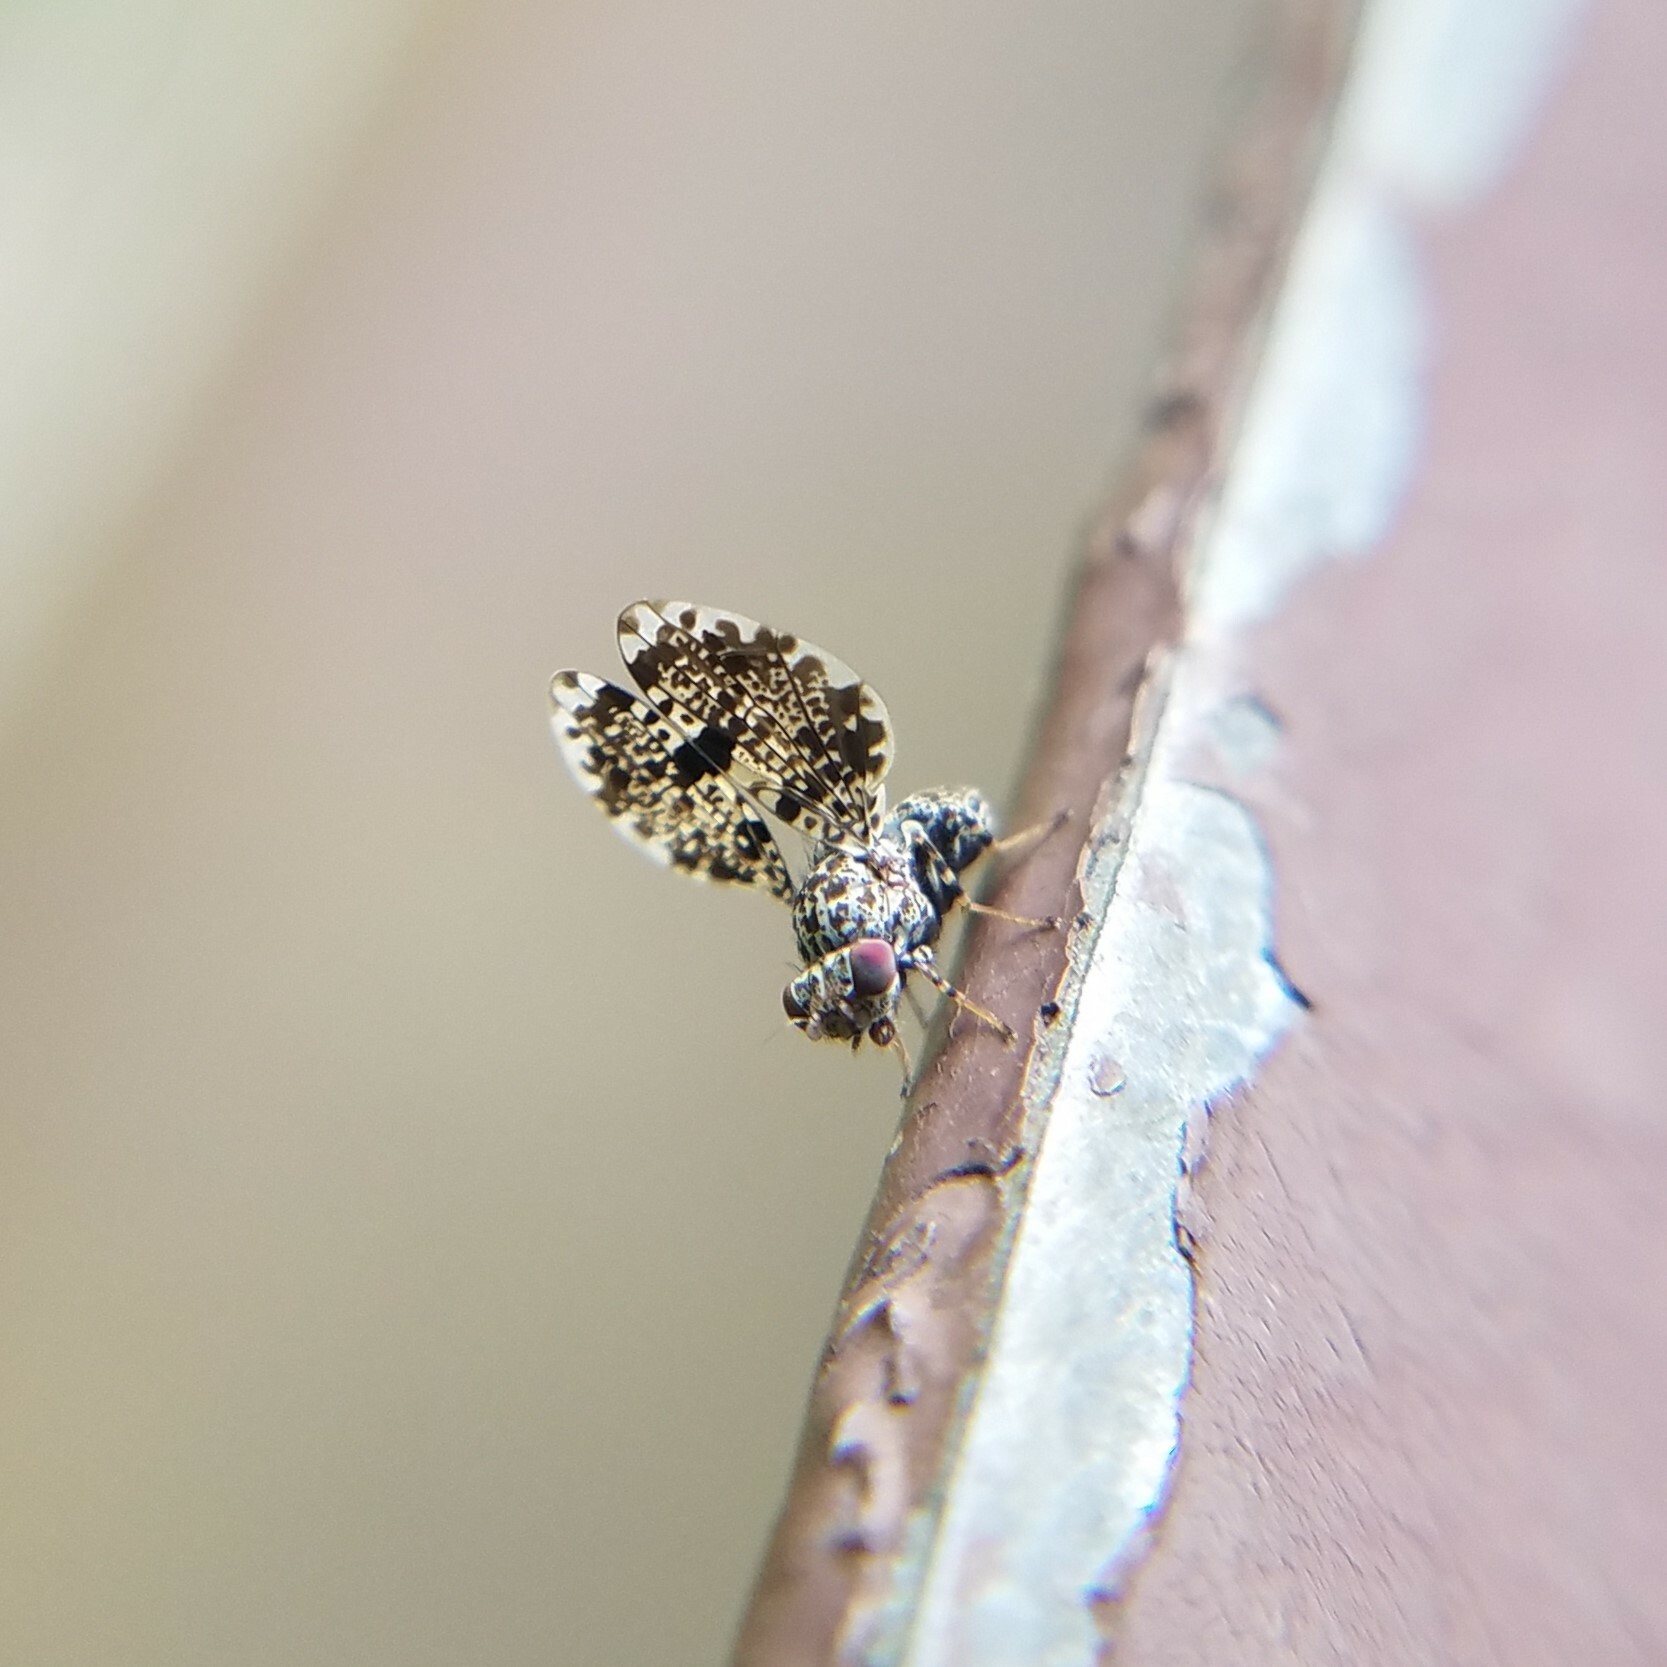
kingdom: Animalia
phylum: Arthropoda
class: Insecta
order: Diptera
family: Ulidiidae
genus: Callopistromyia
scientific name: Callopistromyia annulipes
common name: Peacock fly
